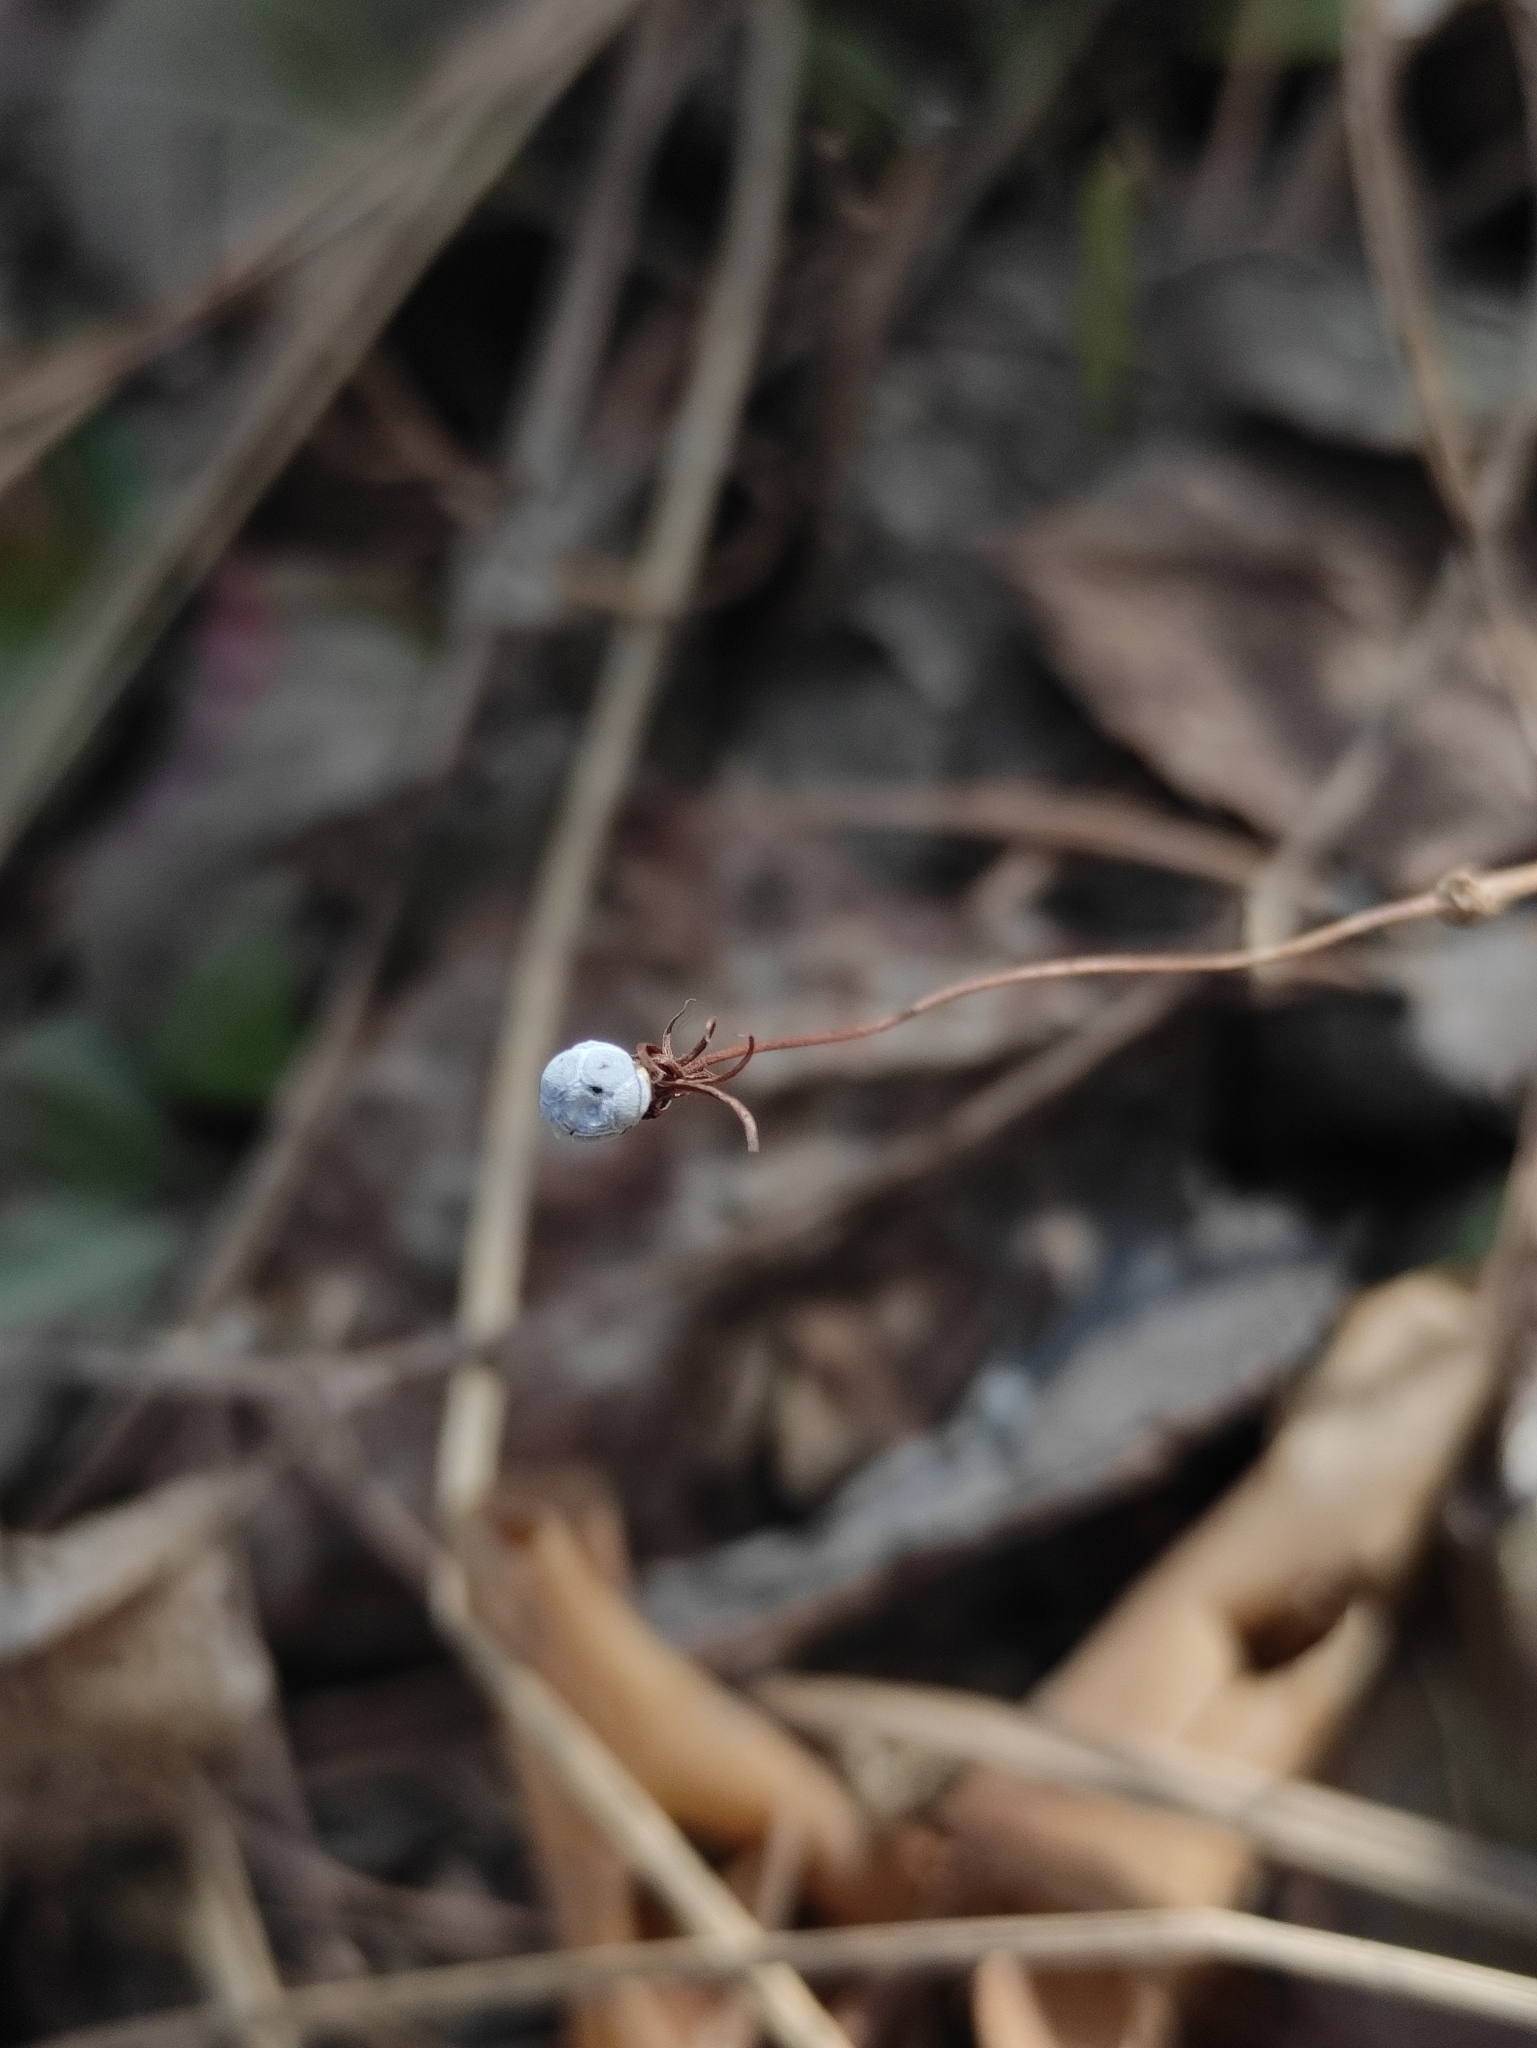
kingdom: Plantae
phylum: Tracheophyta
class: Magnoliopsida
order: Ericales
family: Primulaceae
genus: Lysimachia
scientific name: Lysimachia europaea
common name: Arctic starflower
